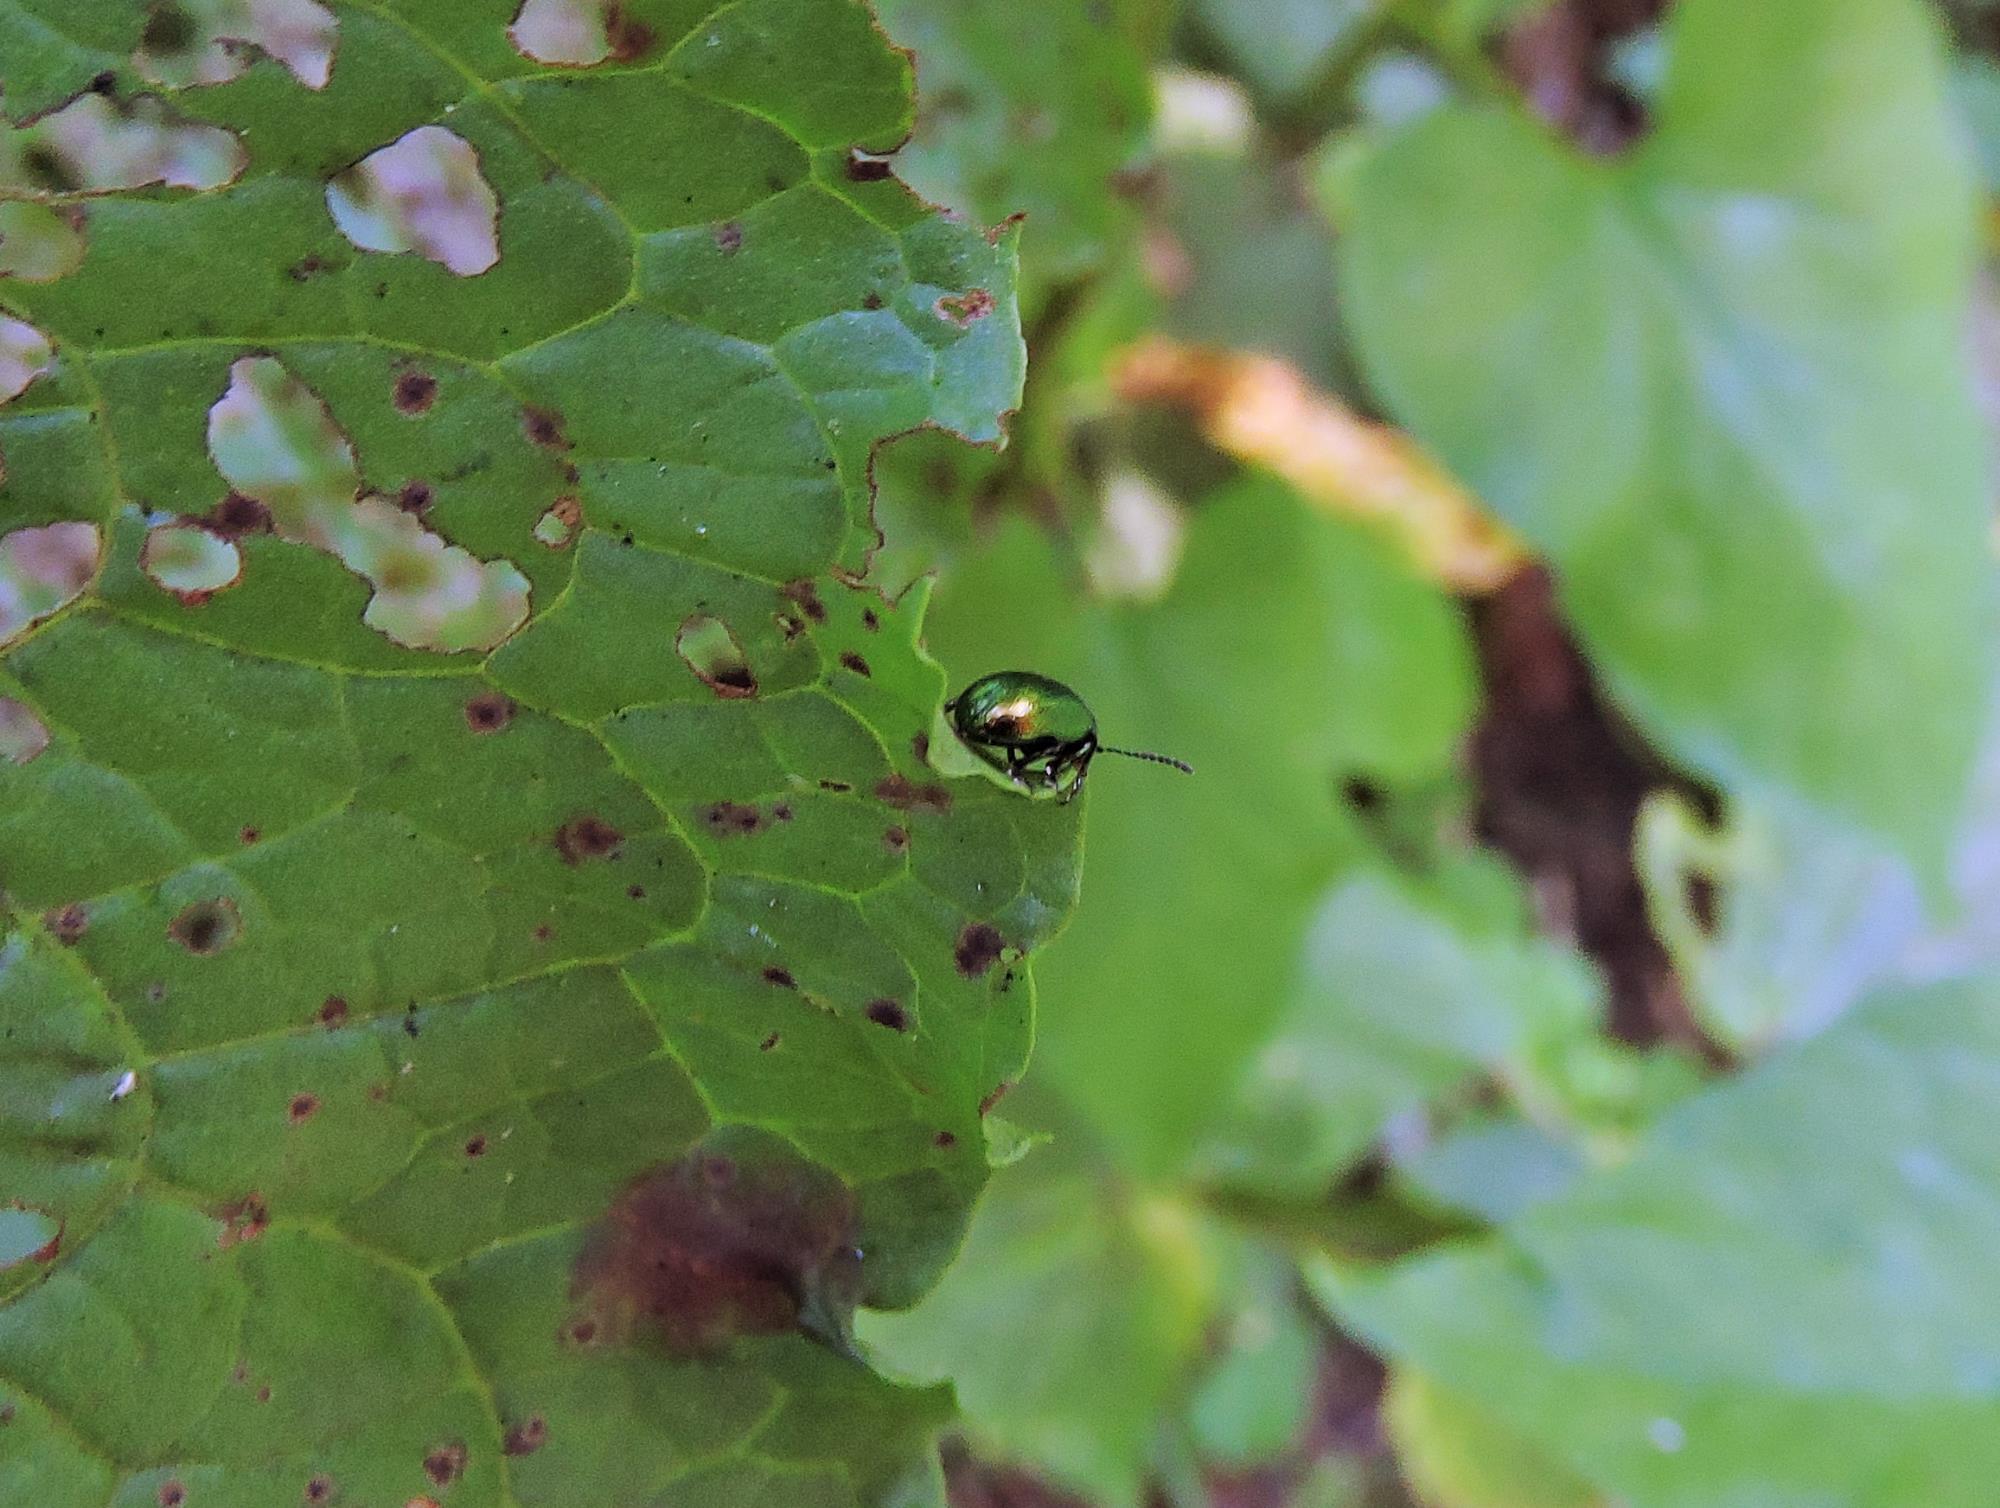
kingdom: Animalia
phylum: Arthropoda
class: Insecta
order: Coleoptera
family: Chrysomelidae
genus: Gastrophysa
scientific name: Gastrophysa viridula
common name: Green dock beetle
